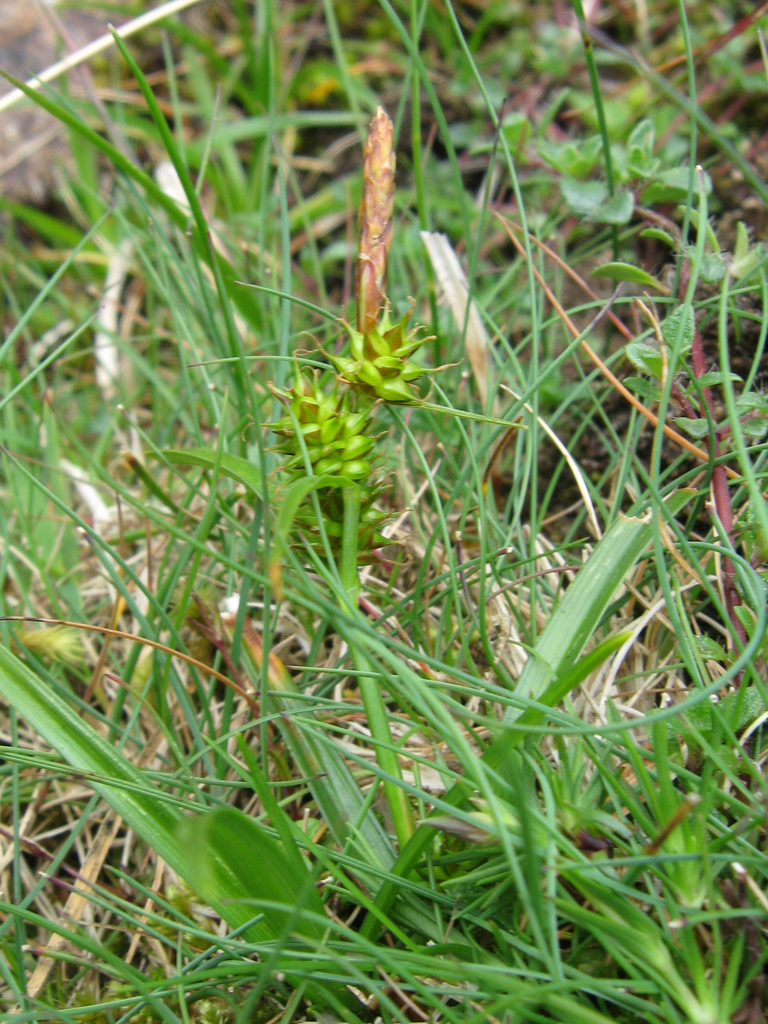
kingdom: Plantae
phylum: Tracheophyta
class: Liliopsida
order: Poales
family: Cyperaceae
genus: Carex
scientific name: Carex demissa
